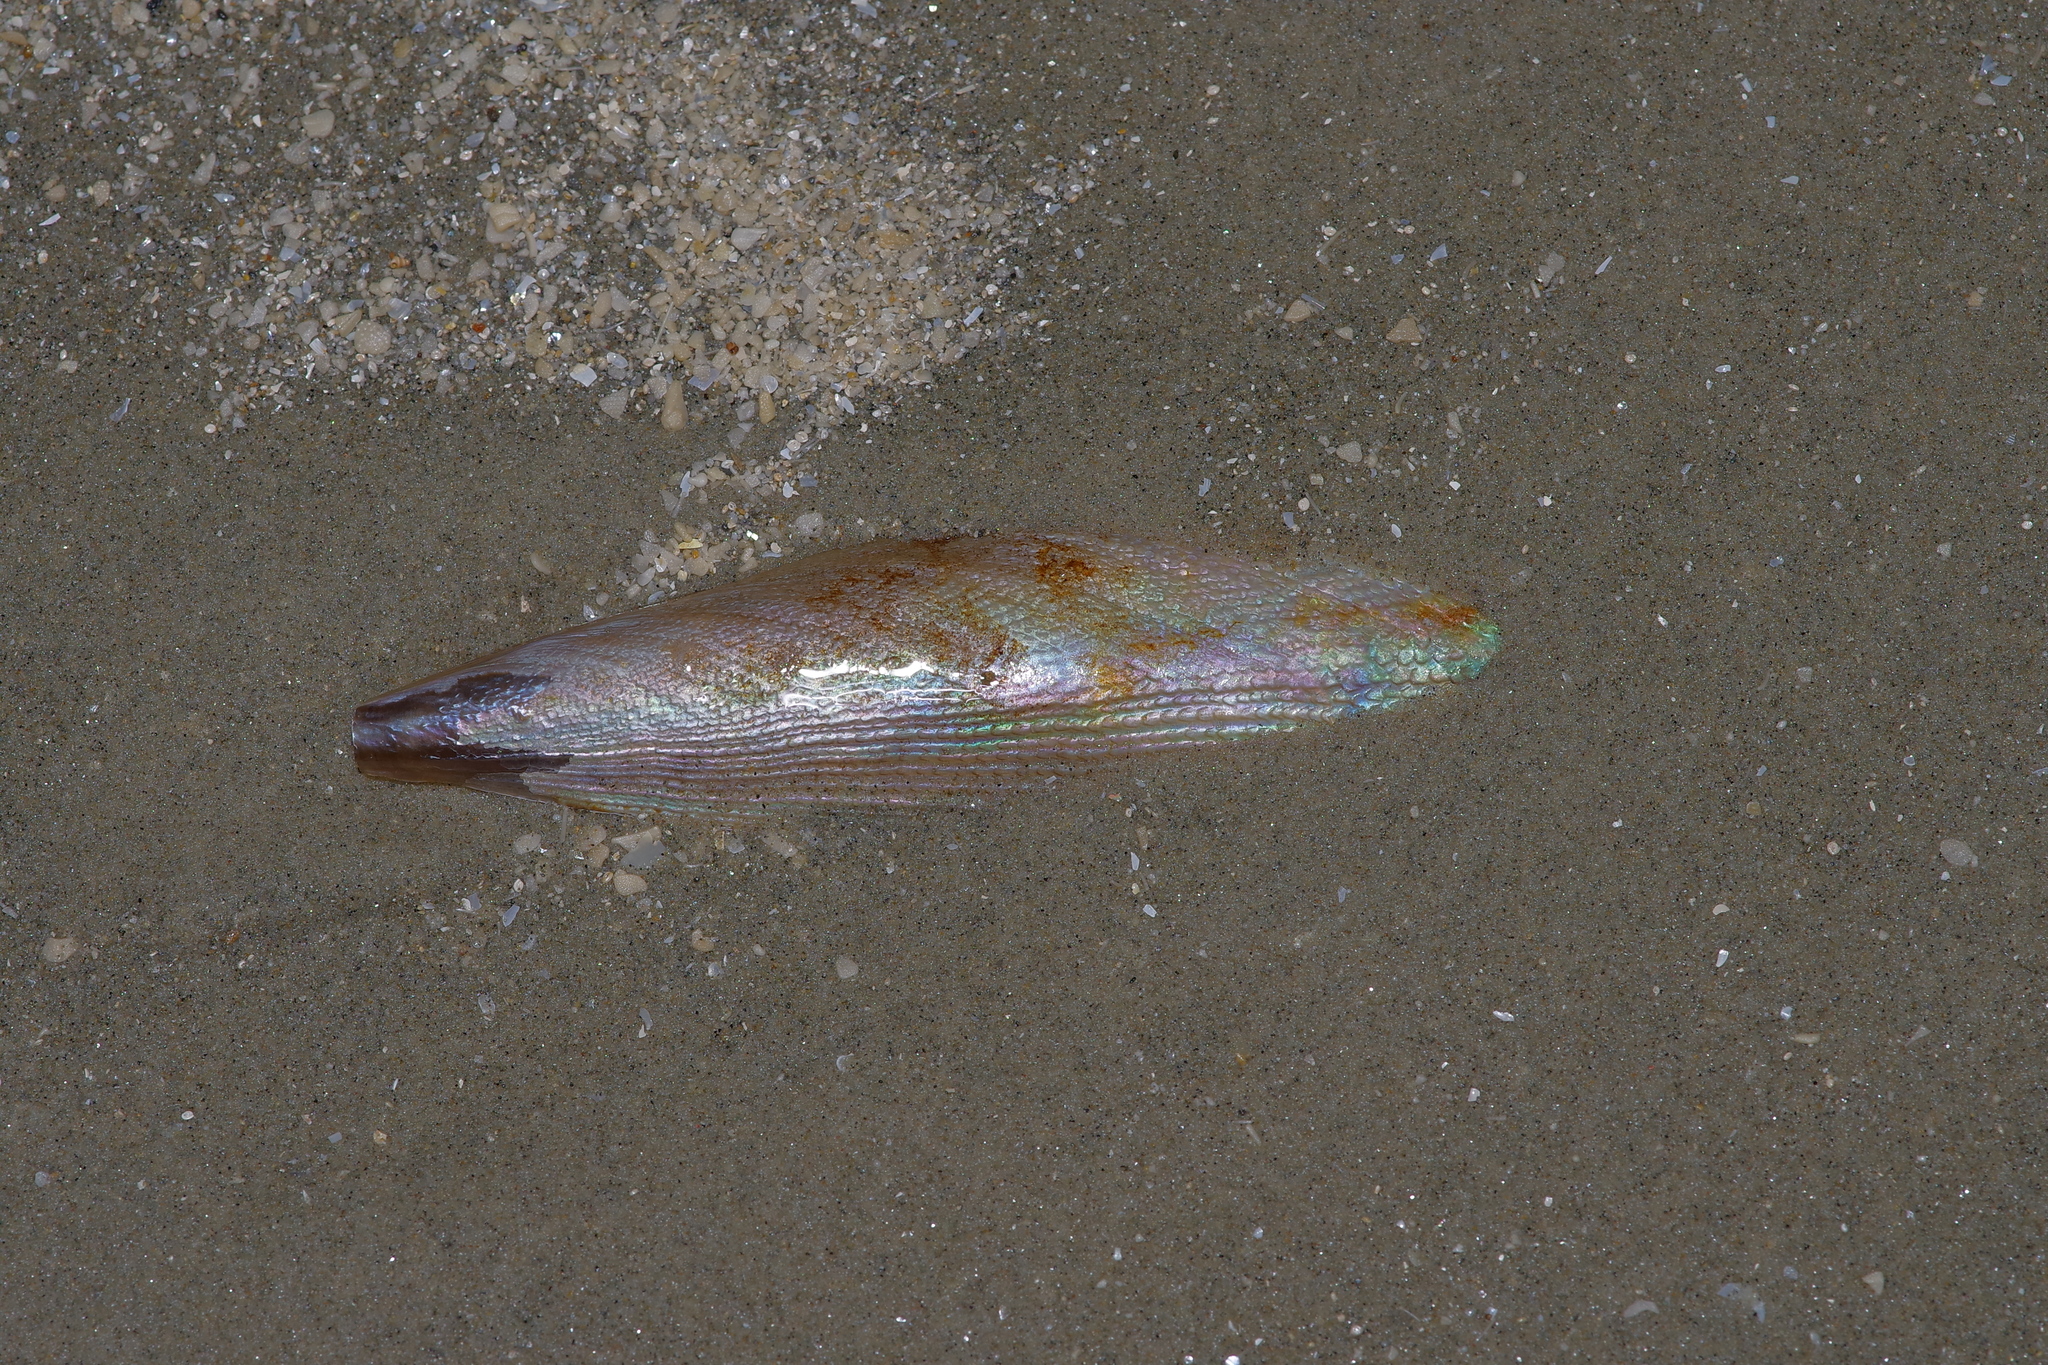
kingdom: Animalia
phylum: Mollusca
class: Bivalvia
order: Ostreida
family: Pinnidae
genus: Atrina
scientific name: Atrina serrata
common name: Saw-toothed penshell
